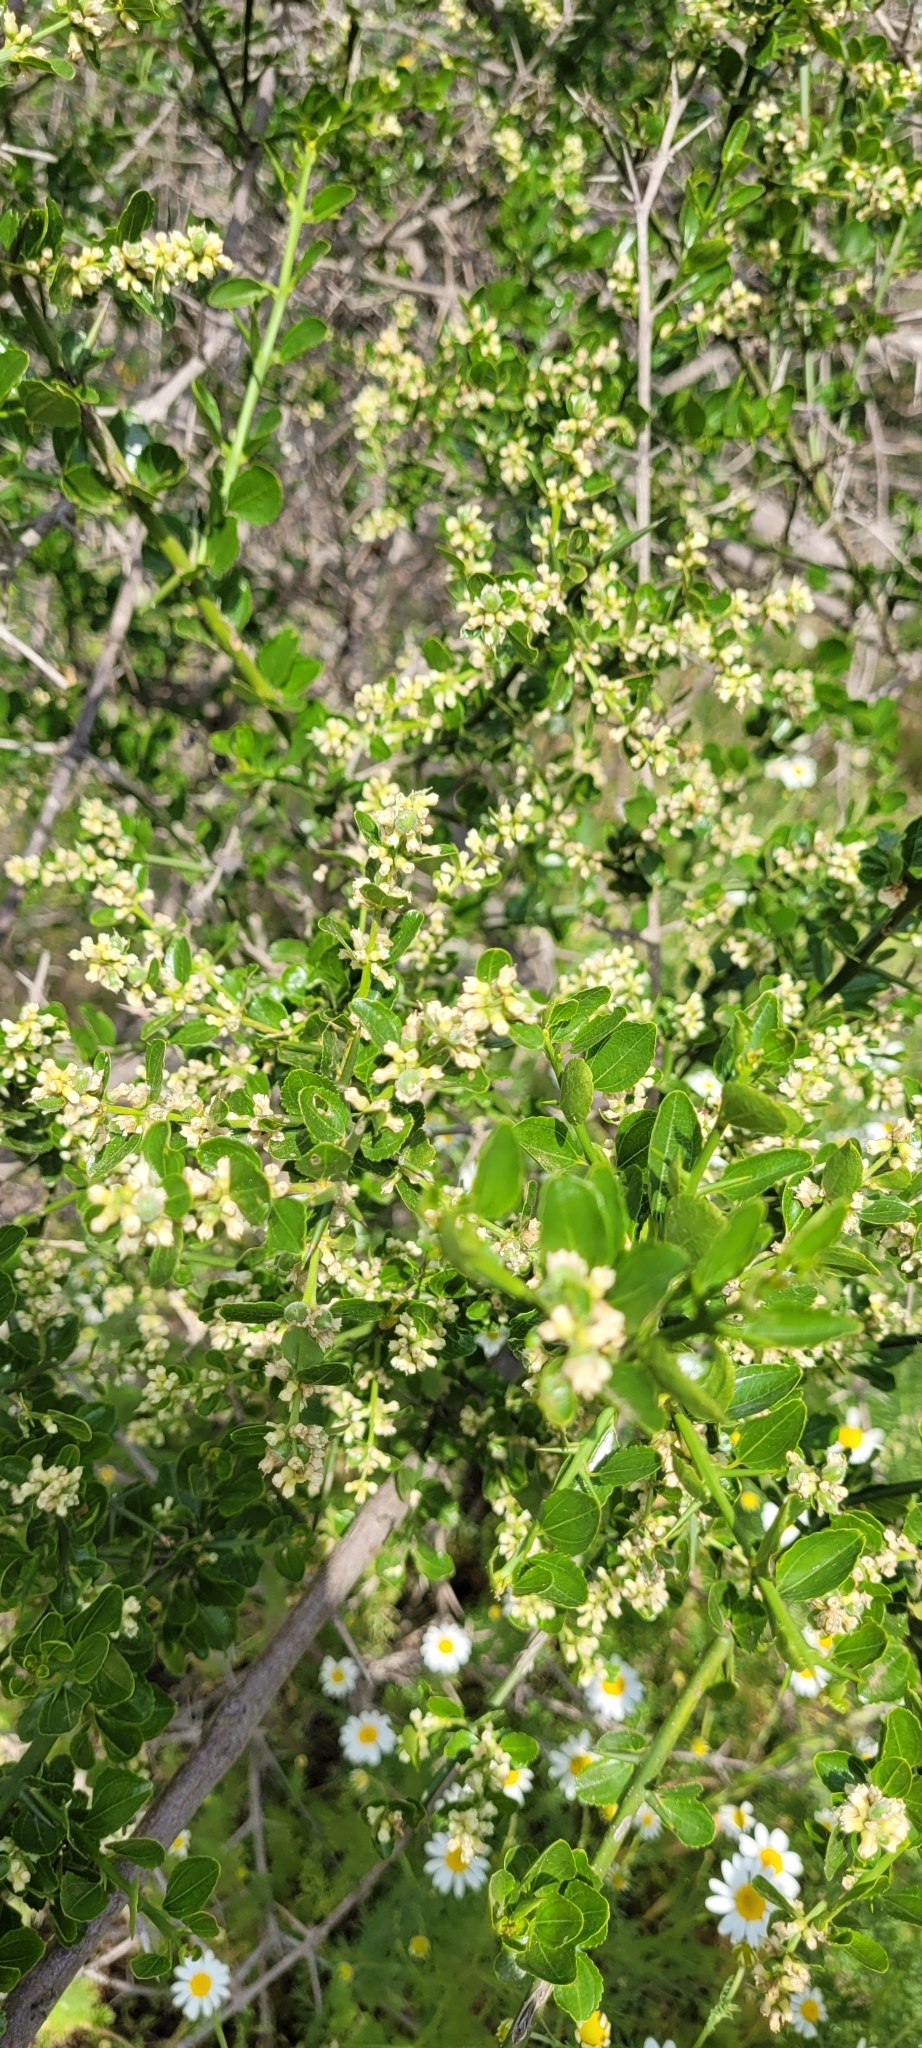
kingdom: Plantae
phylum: Tracheophyta
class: Magnoliopsida
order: Rosales
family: Rhamnaceae
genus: Retanilla
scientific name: Retanilla trinervia
